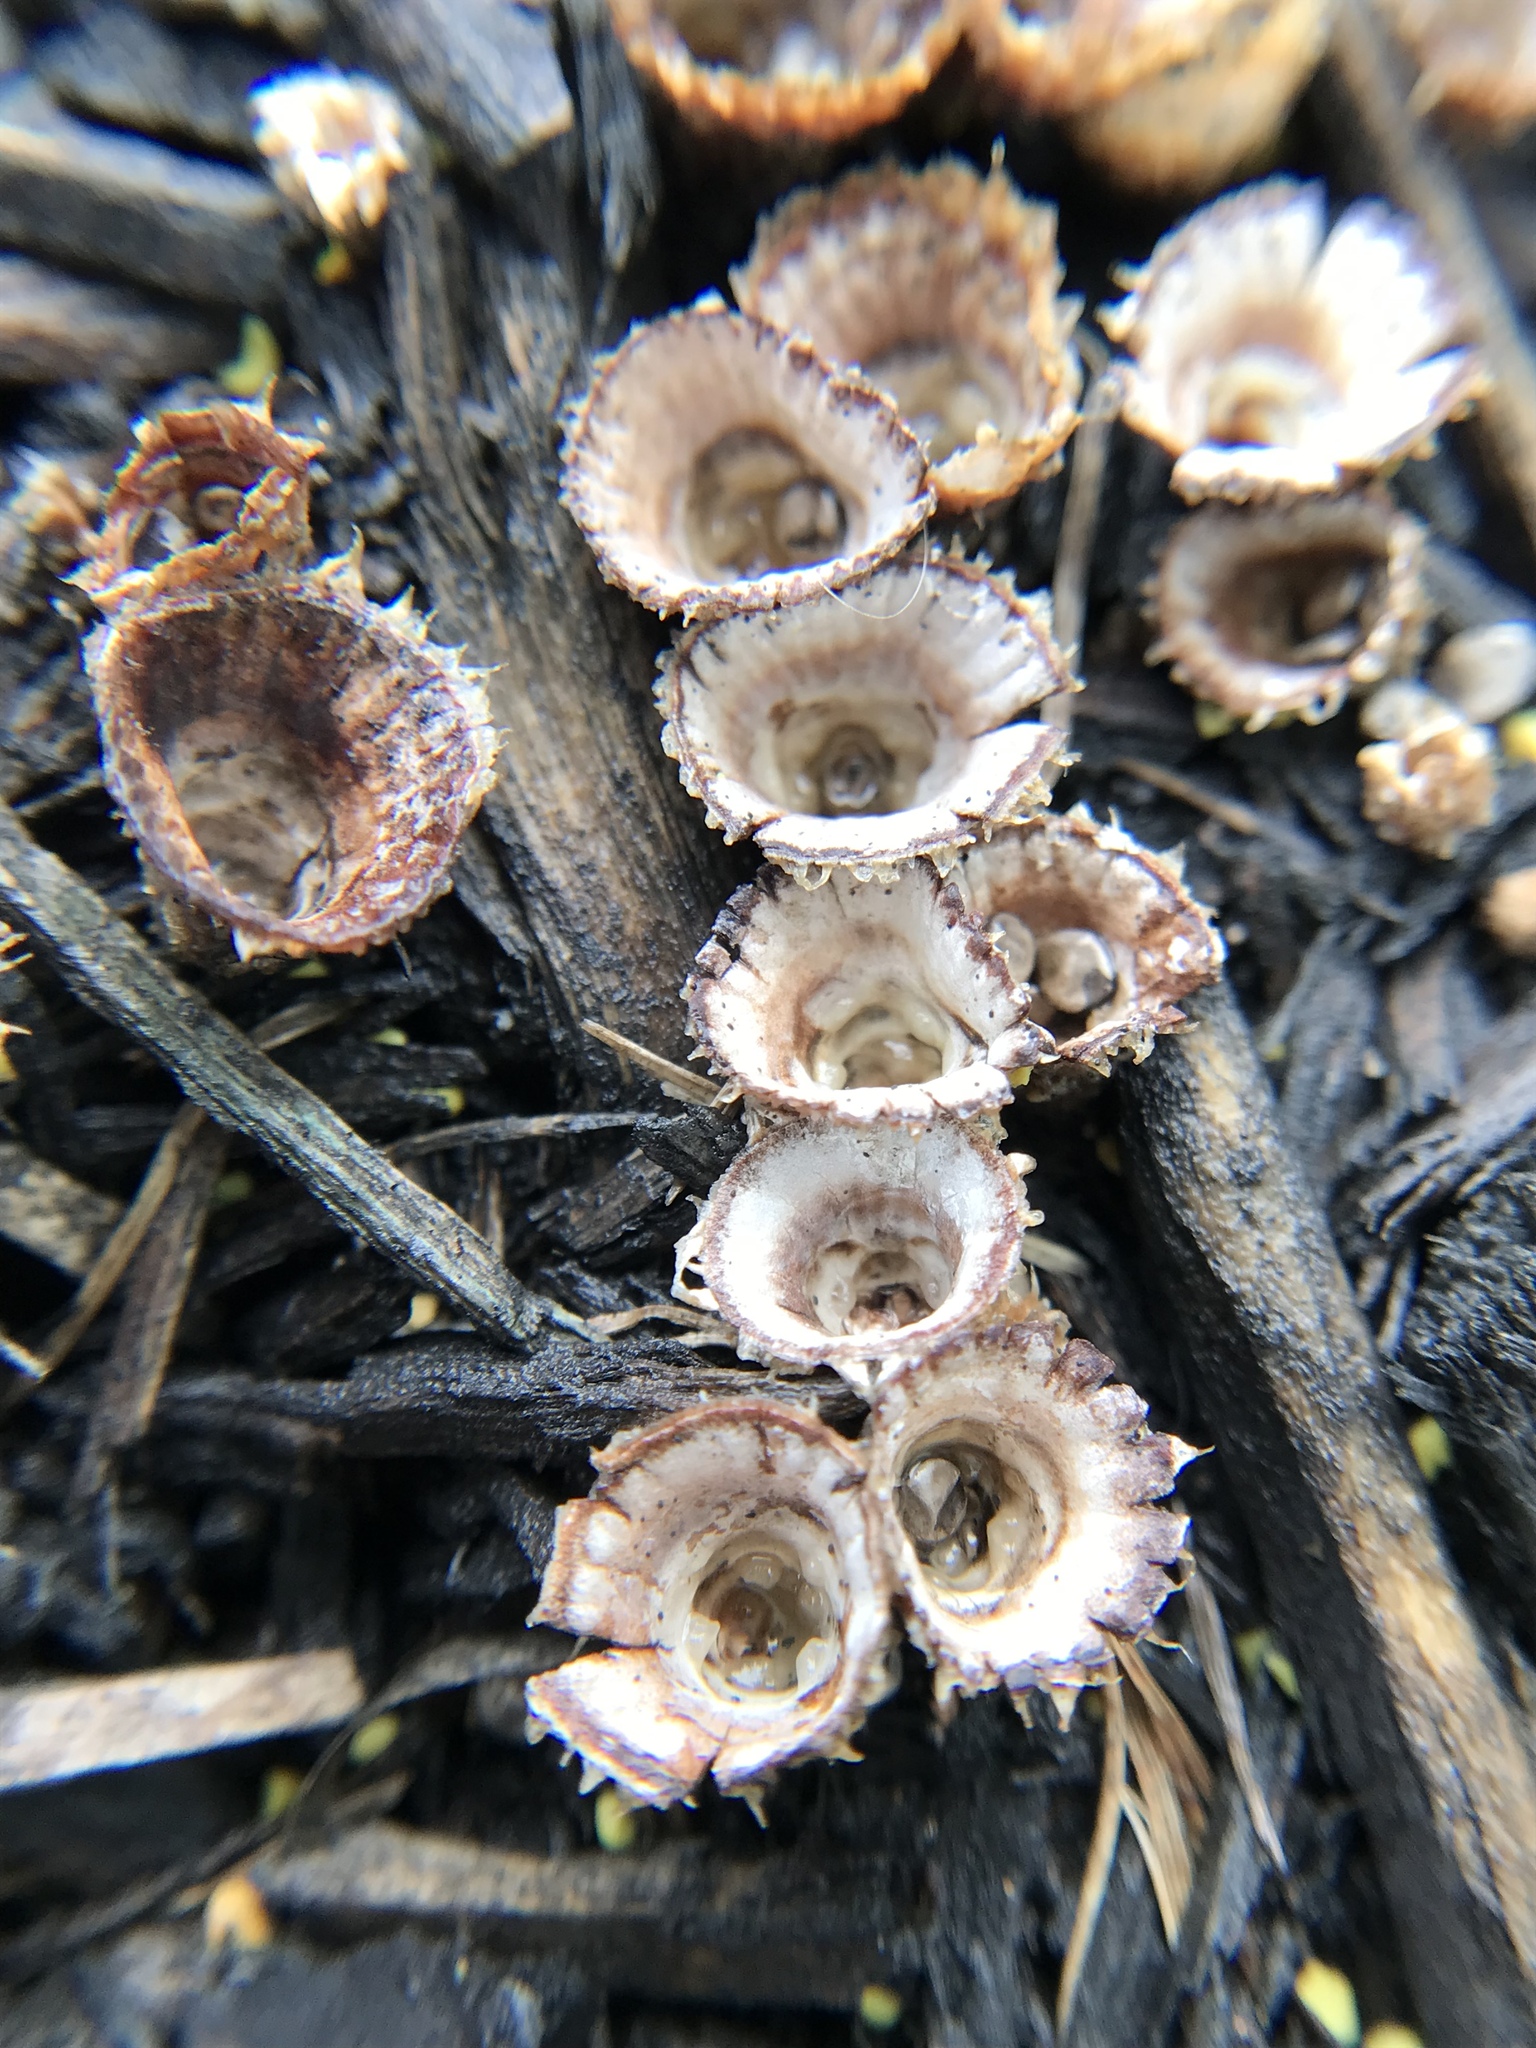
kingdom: Fungi
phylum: Basidiomycota
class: Agaricomycetes
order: Agaricales
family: Agaricaceae
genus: Cyathus
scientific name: Cyathus striatus
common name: Fluted bird's nest
